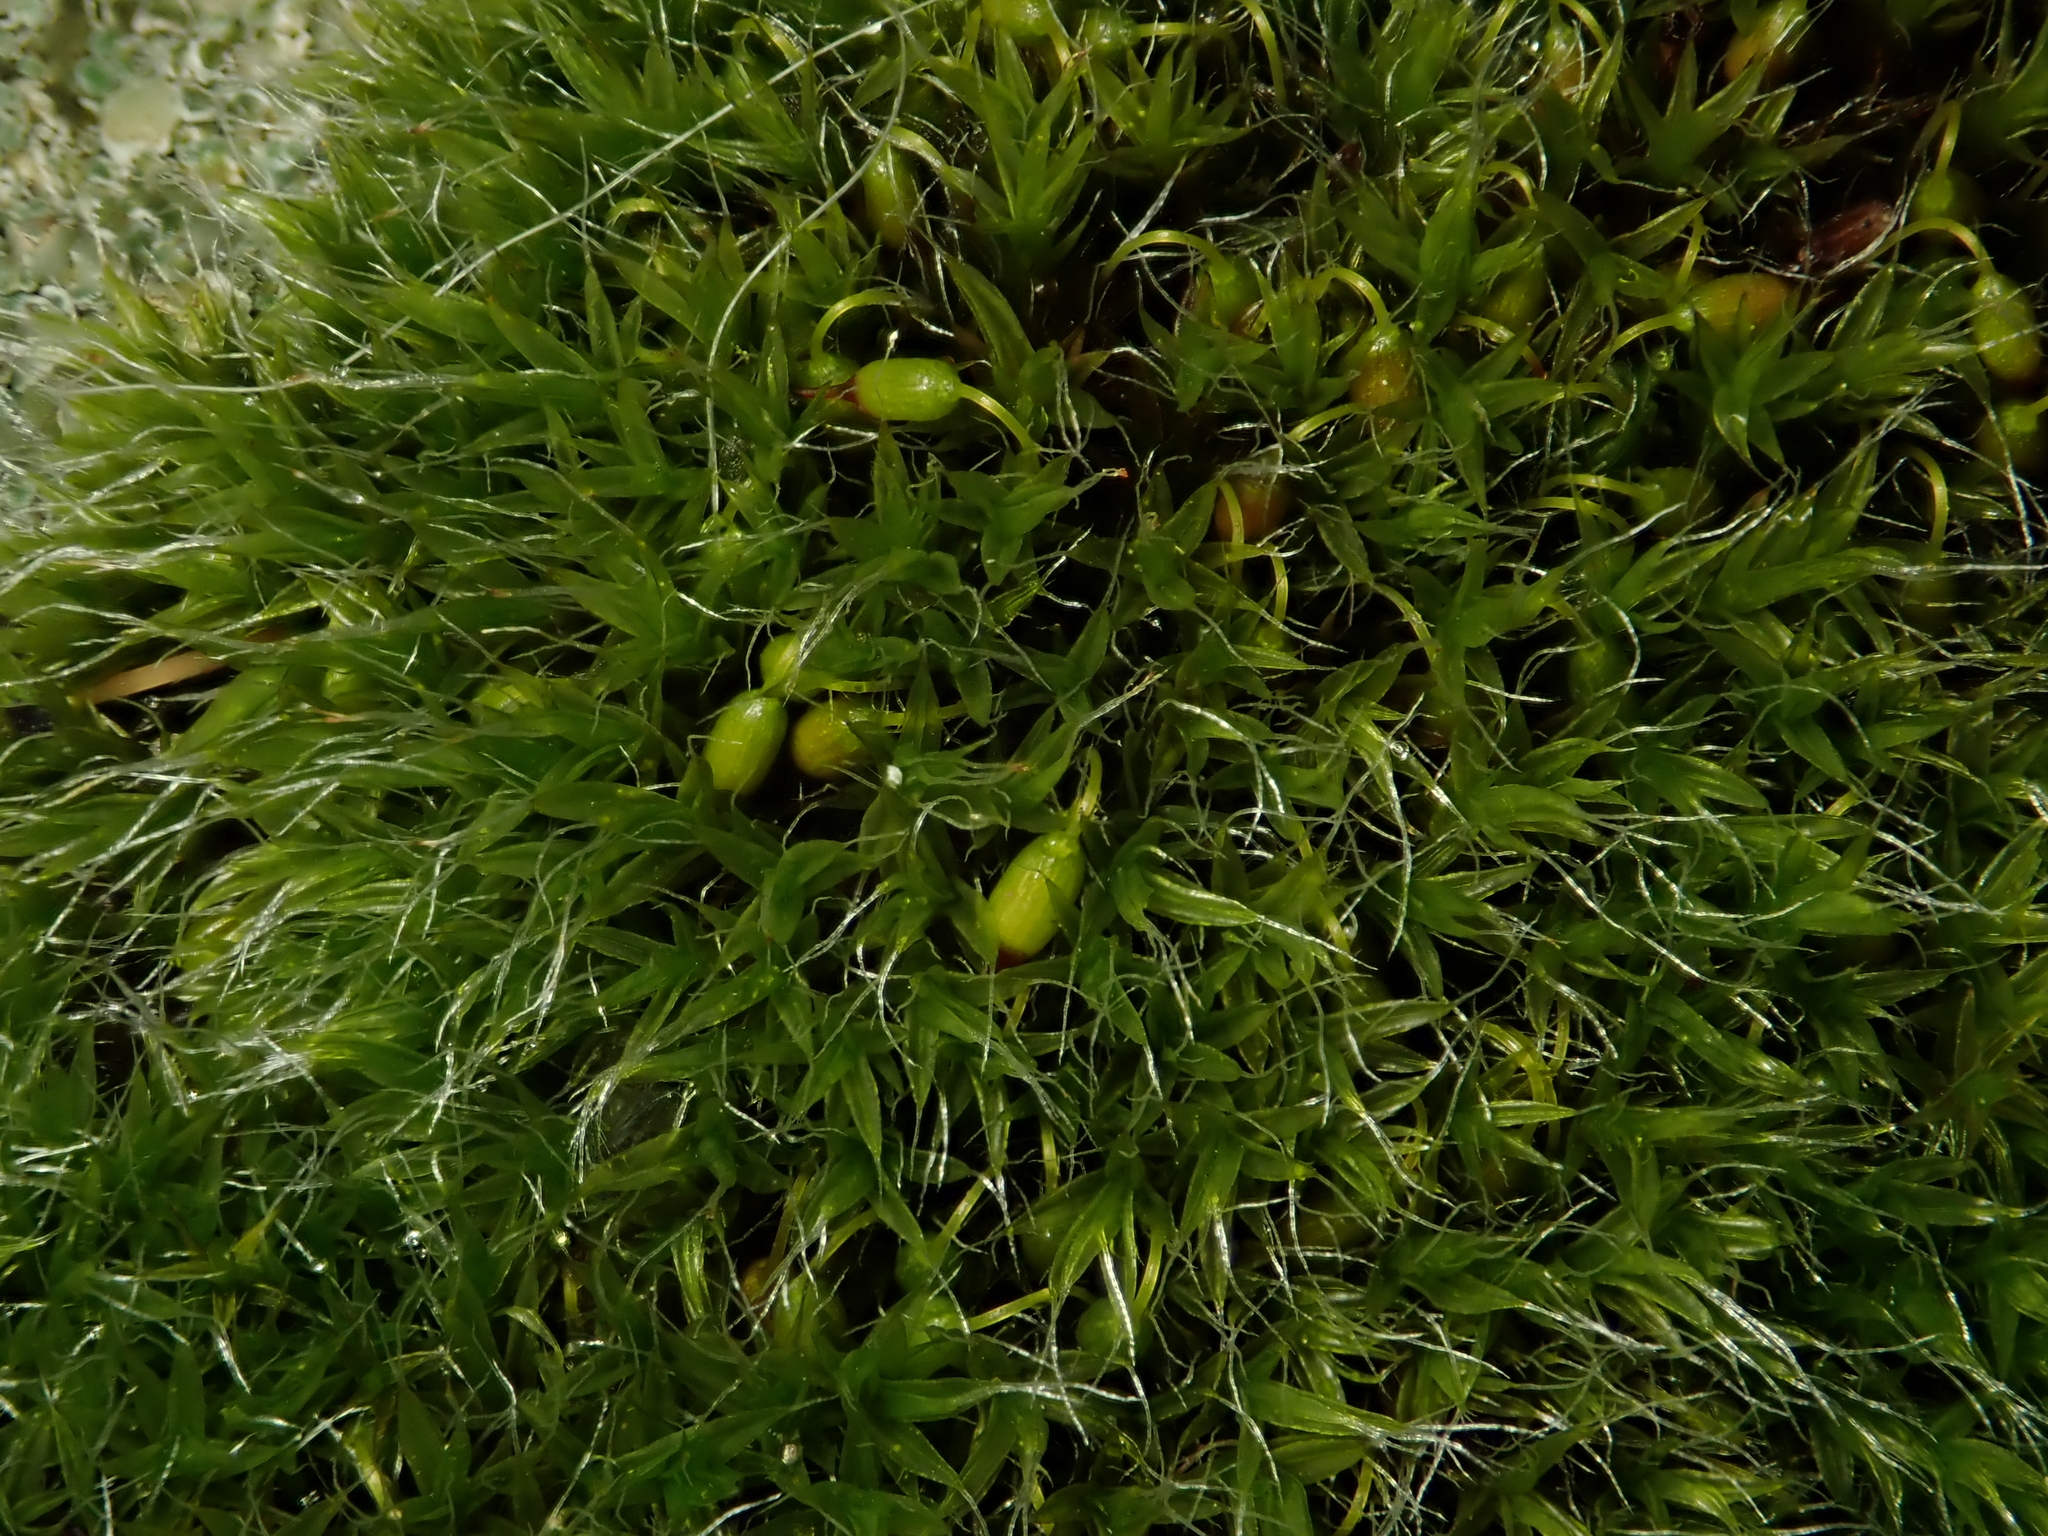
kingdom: Plantae
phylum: Bryophyta
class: Bryopsida
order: Grimmiales
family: Grimmiaceae
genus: Grimmia
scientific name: Grimmia pulvinata
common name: Grey-cushioned grimmia
